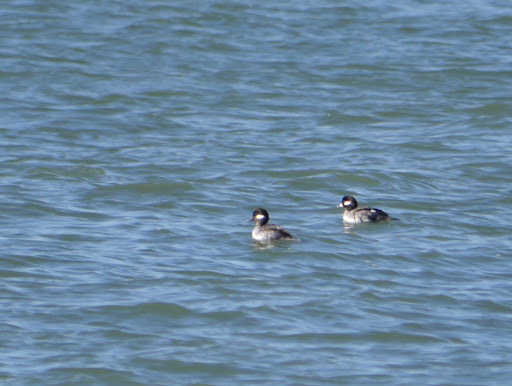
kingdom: Animalia
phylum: Chordata
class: Aves
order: Anseriformes
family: Anatidae
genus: Bucephala
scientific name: Bucephala albeola
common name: Bufflehead
